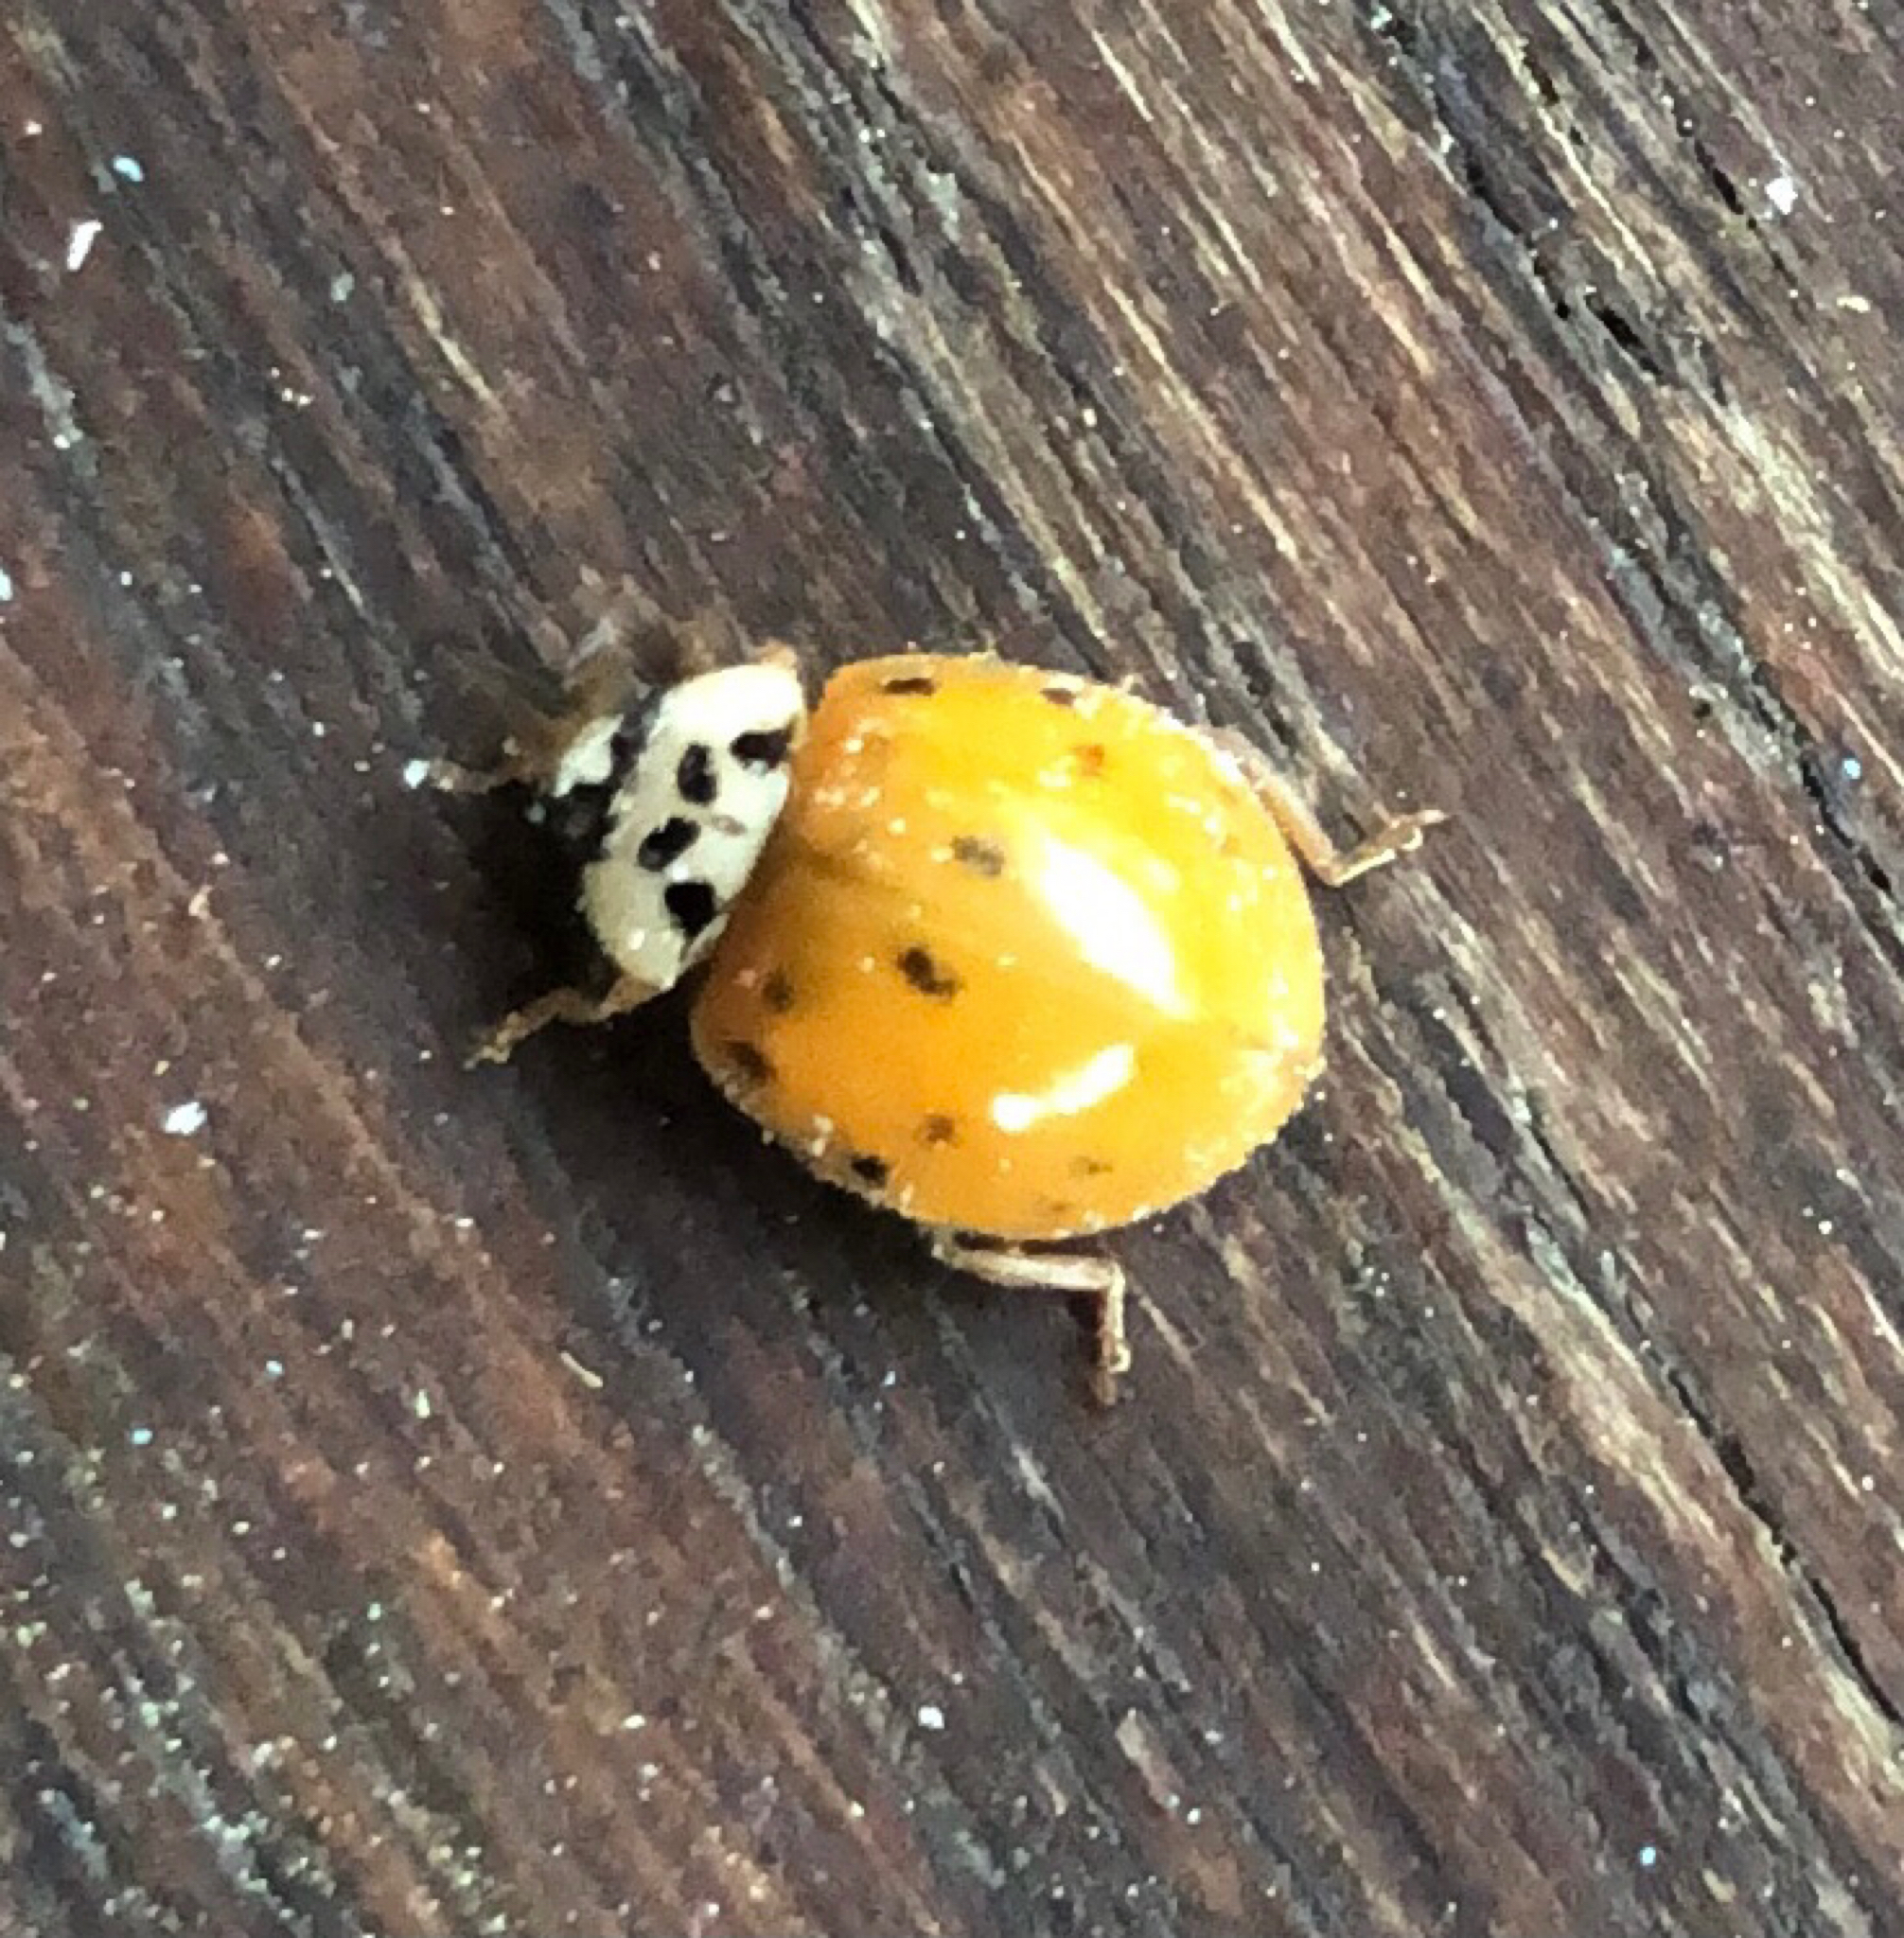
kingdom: Animalia
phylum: Arthropoda
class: Insecta
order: Coleoptera
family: Coccinellidae
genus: Harmonia
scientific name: Harmonia axyridis
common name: Harlequin ladybird
